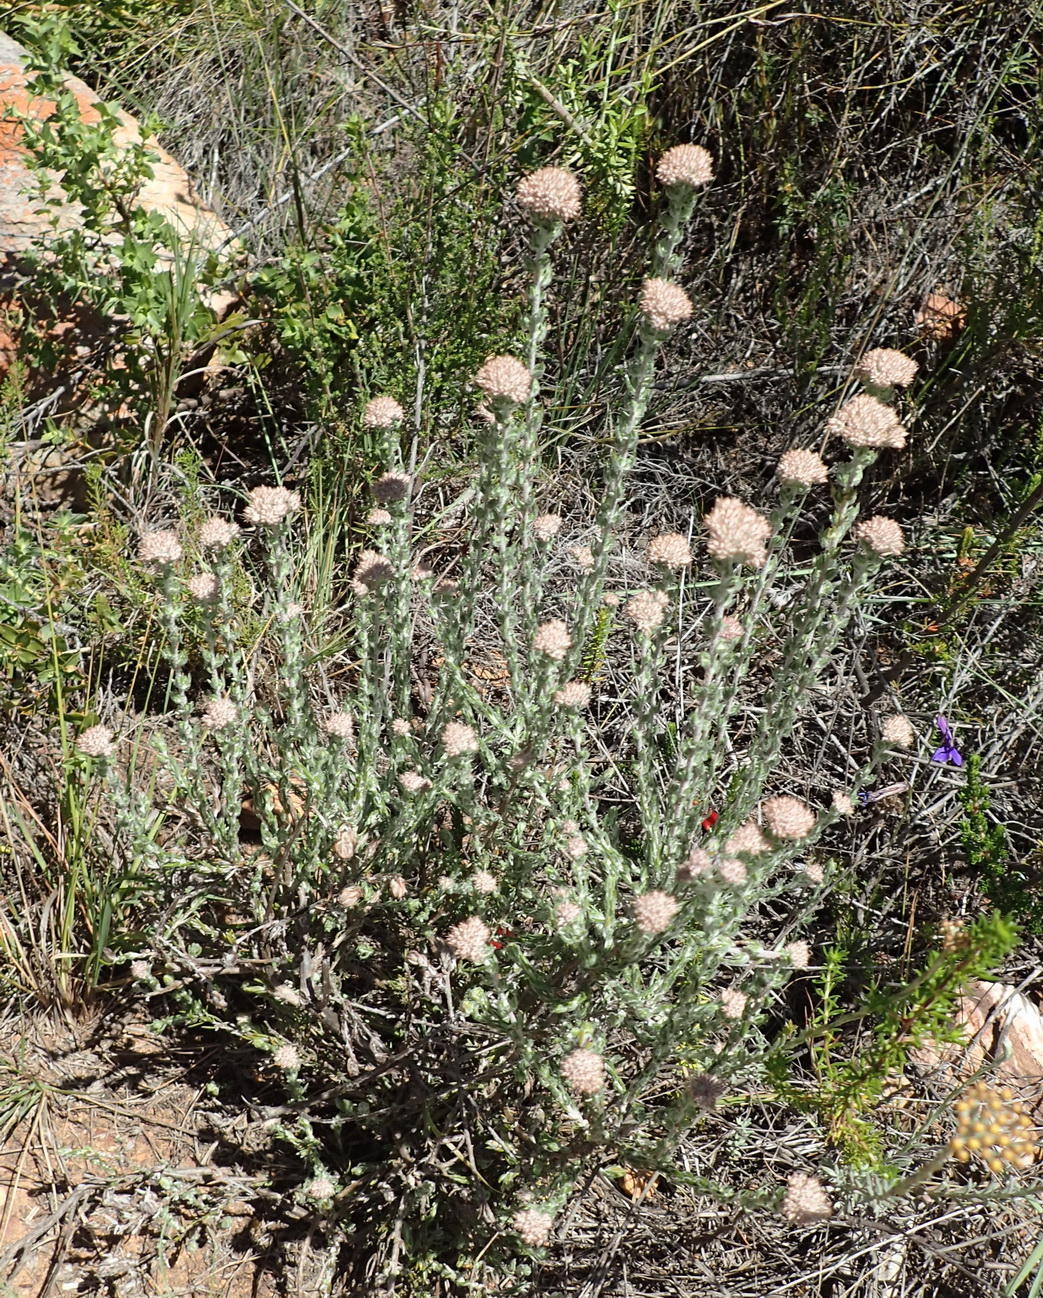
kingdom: Plantae
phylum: Tracheophyta
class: Magnoliopsida
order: Asterales
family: Asteraceae
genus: Metalasia
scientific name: Metalasia pungens
